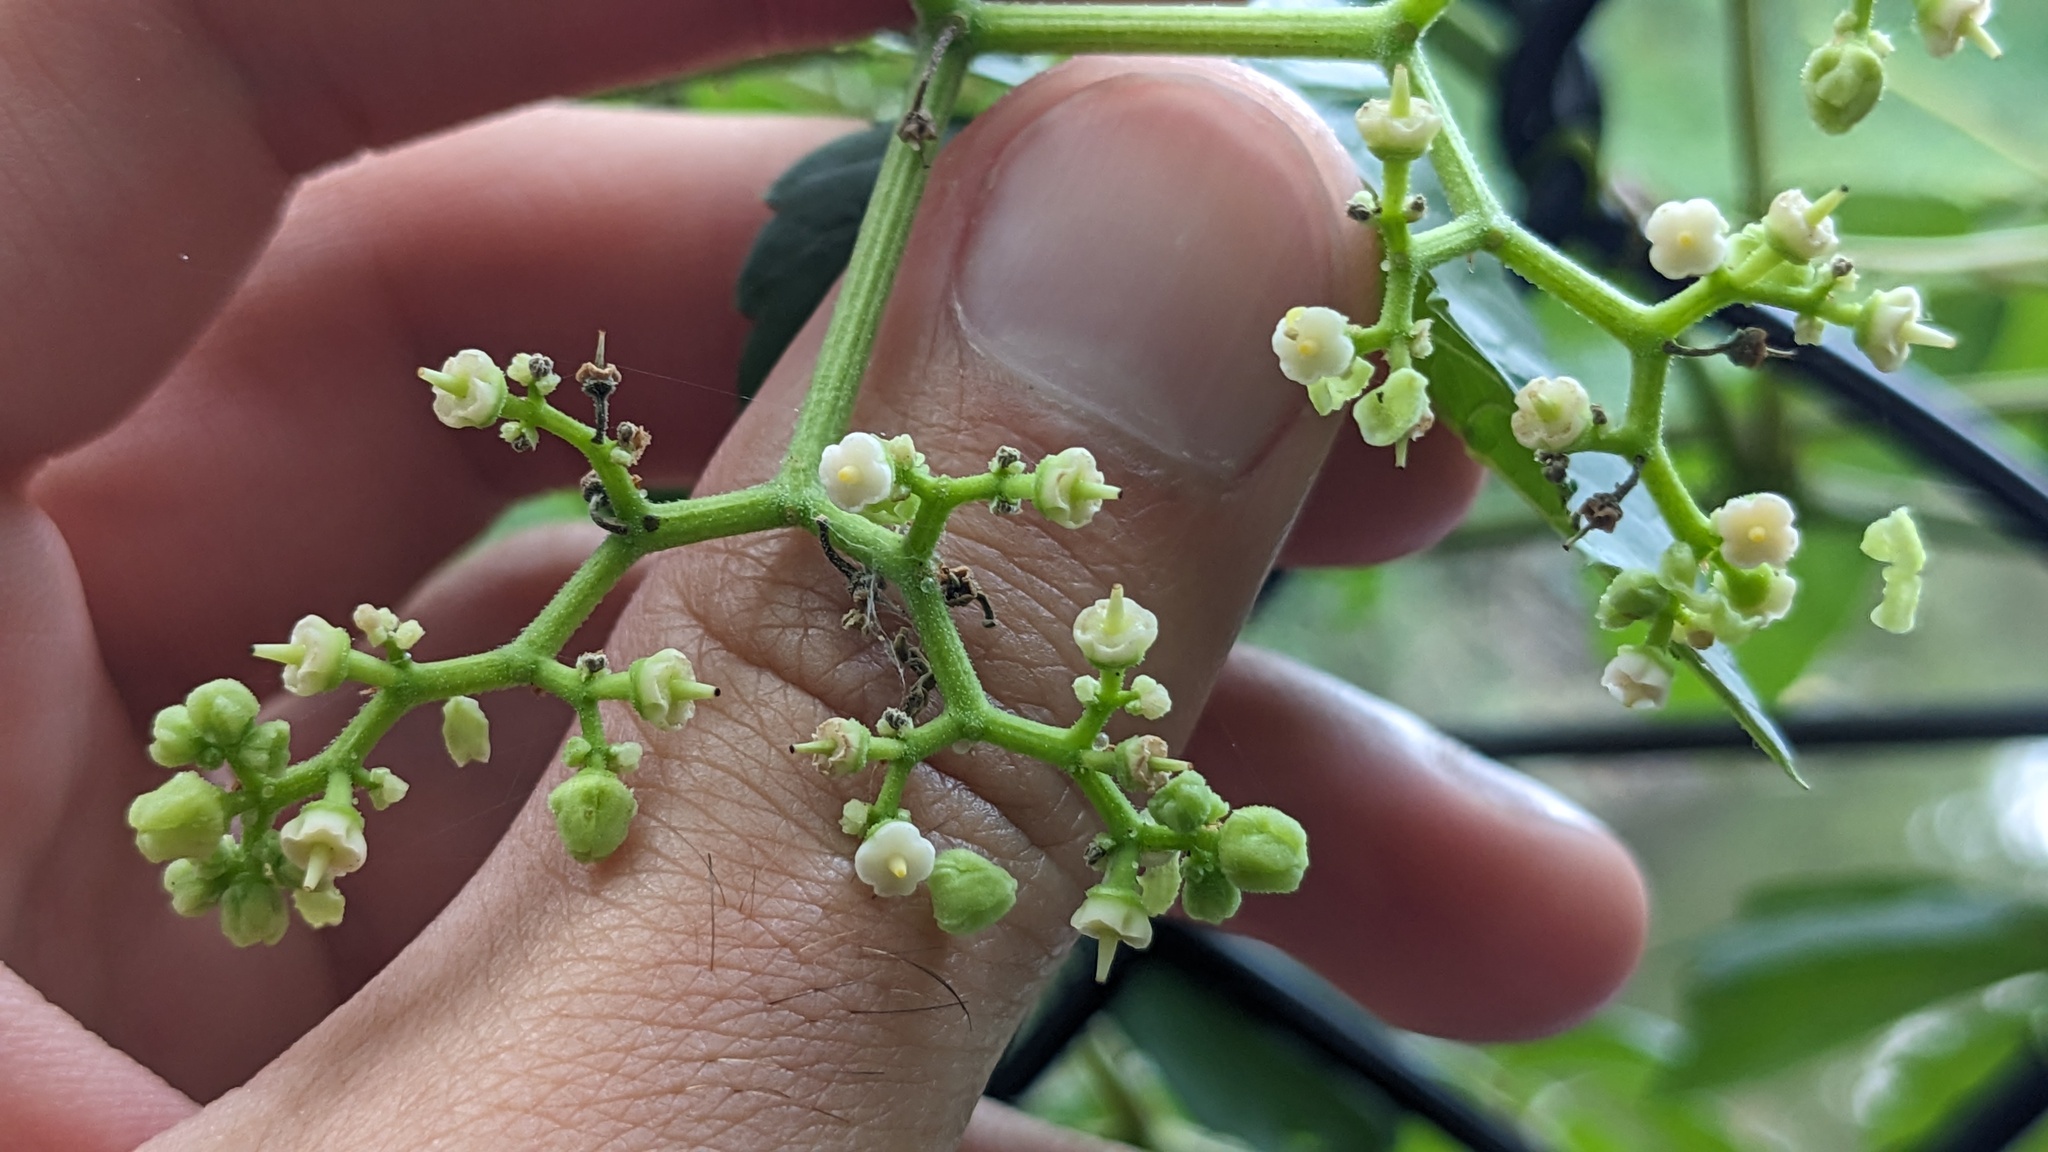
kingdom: Plantae
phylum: Tracheophyta
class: Magnoliopsida
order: Vitales
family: Vitaceae
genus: Causonis
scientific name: Causonis japonica
